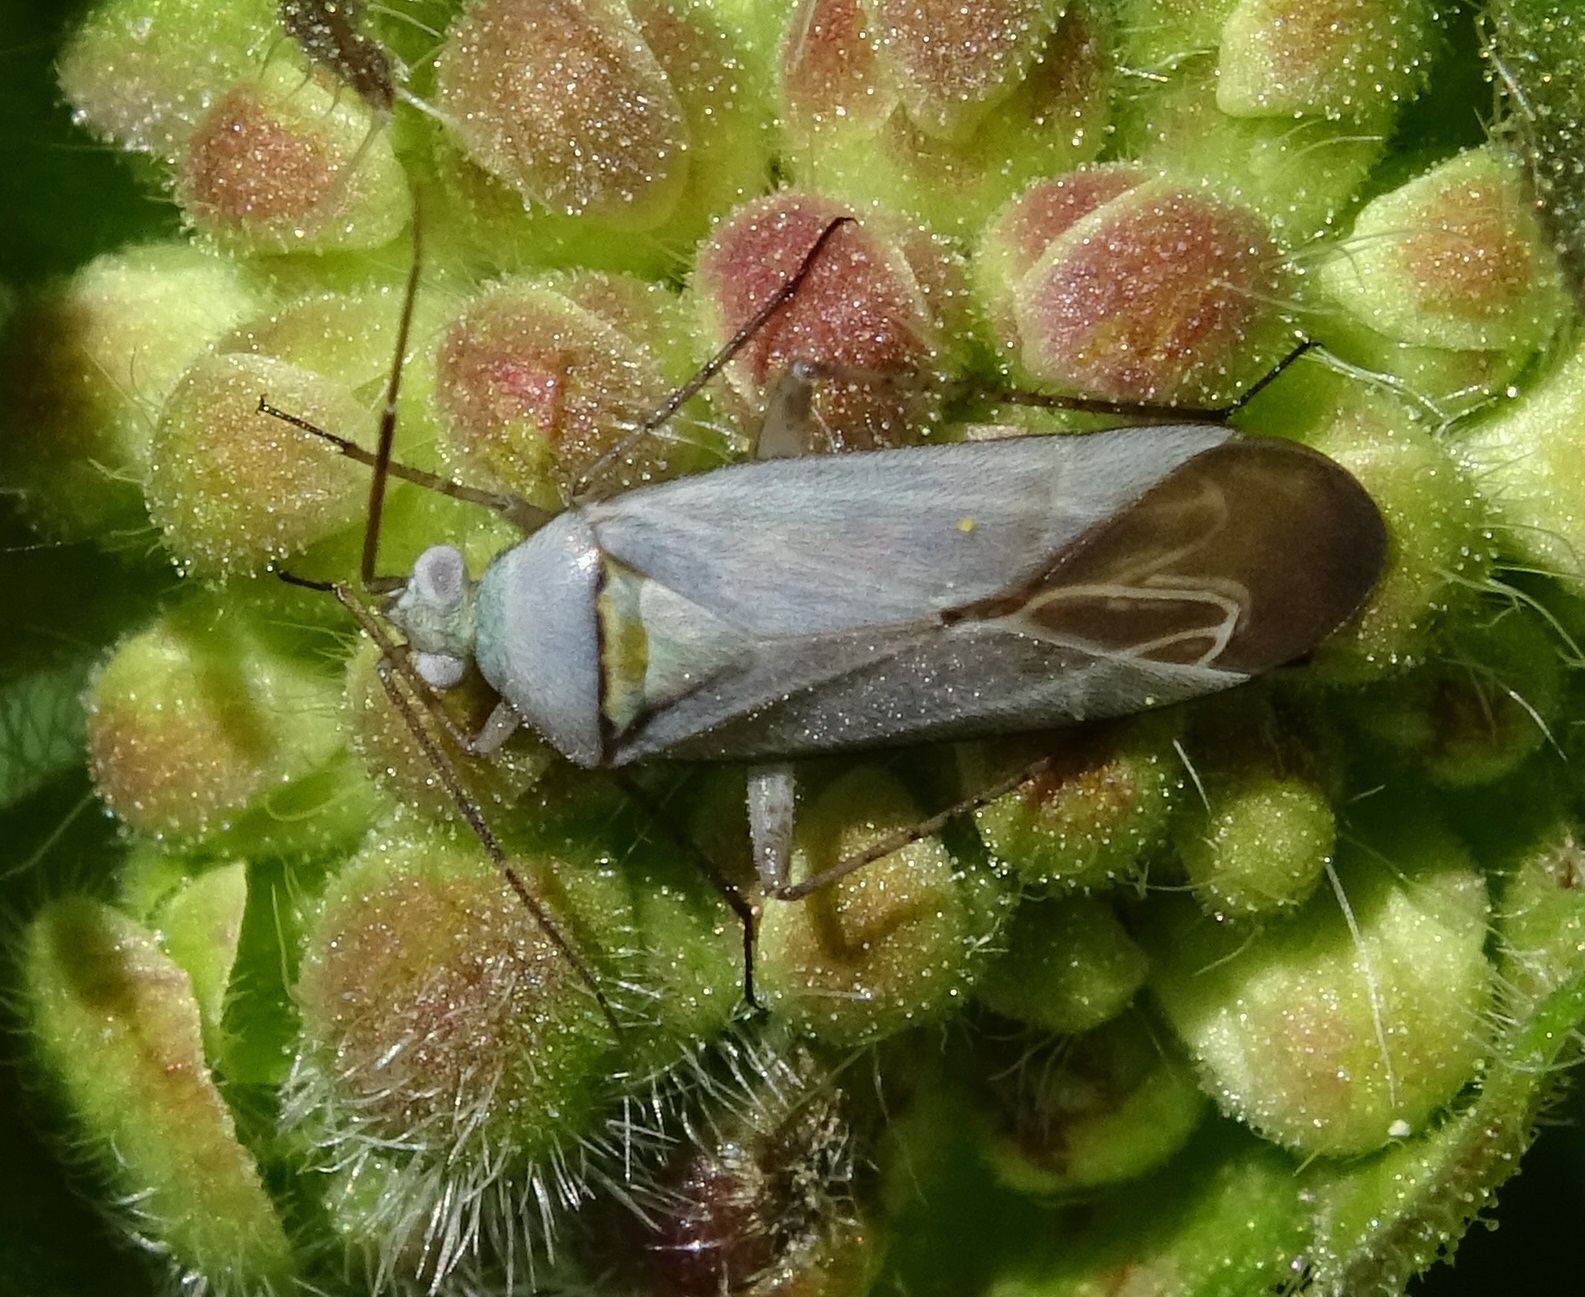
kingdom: Animalia
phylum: Arthropoda
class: Insecta
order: Hemiptera
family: Miridae
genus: Placochilus
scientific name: Placochilus seladonicus
